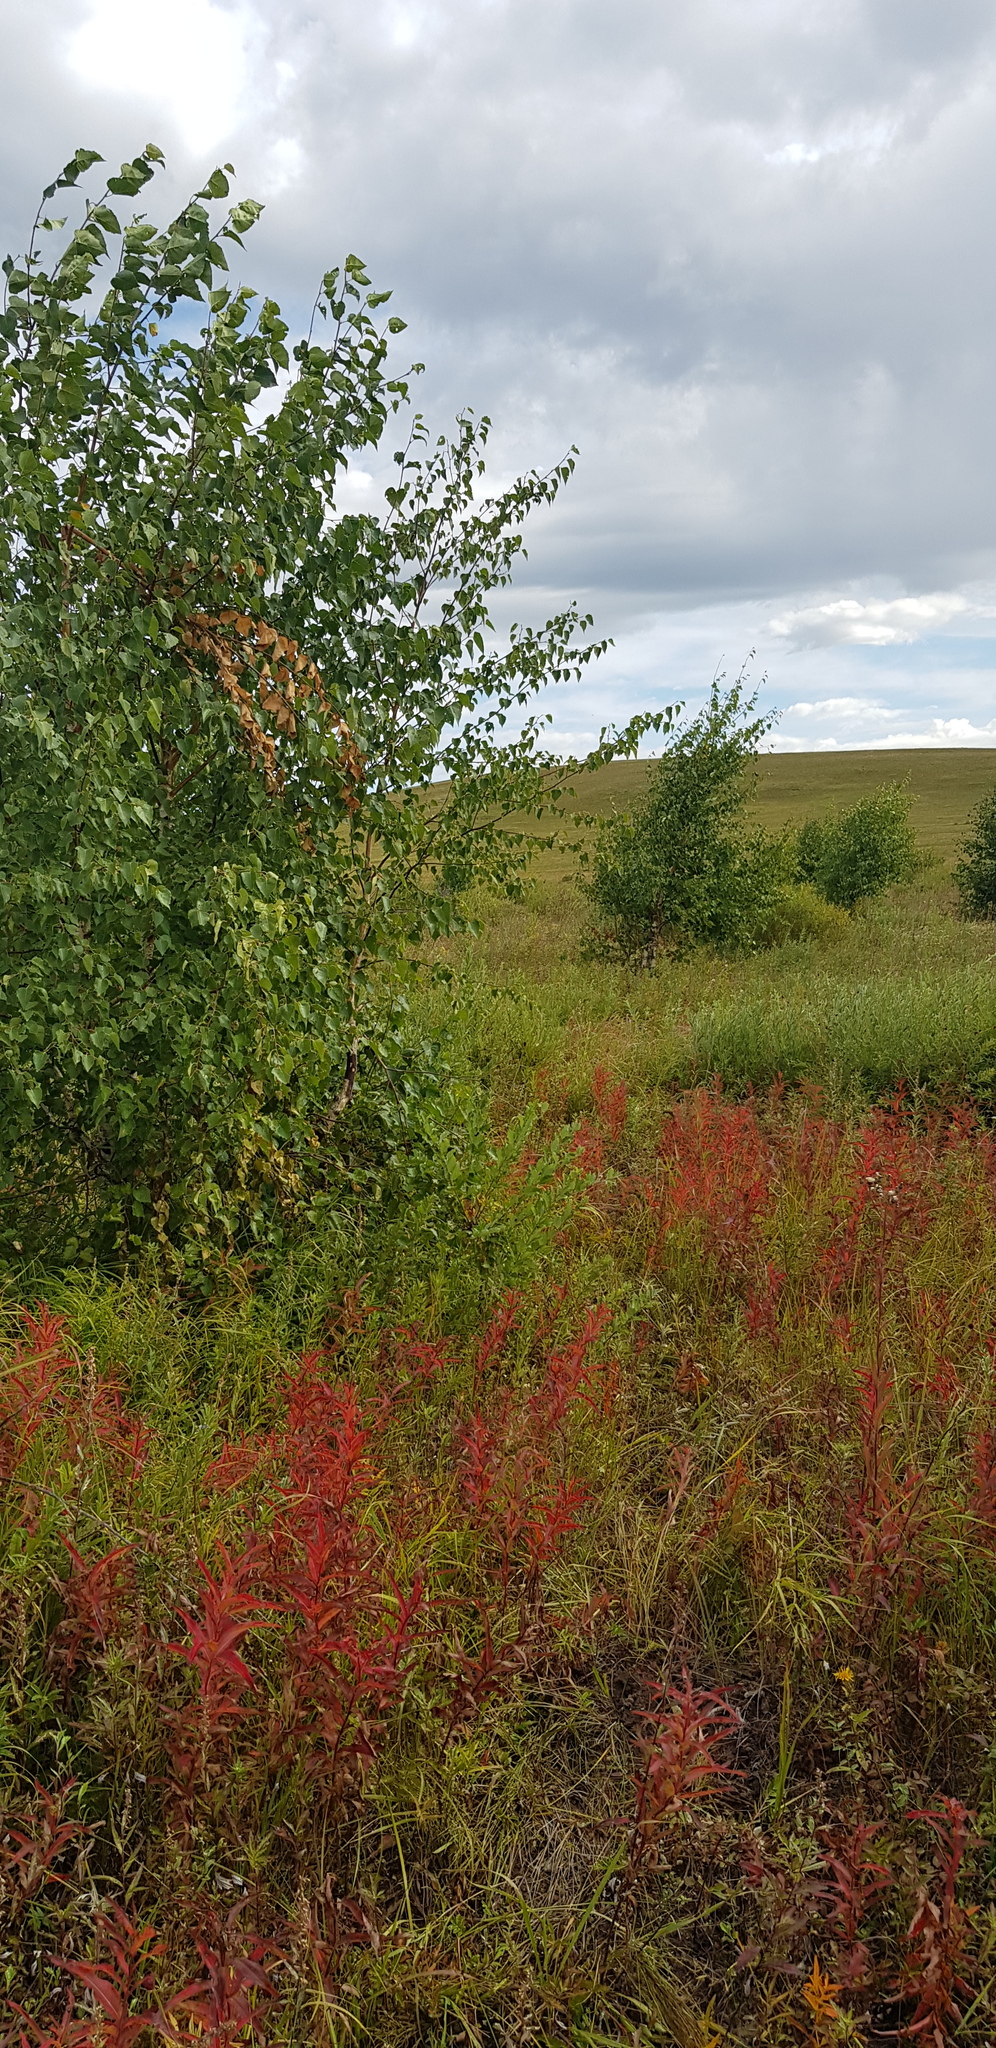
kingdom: Plantae
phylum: Tracheophyta
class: Magnoliopsida
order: Myrtales
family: Onagraceae
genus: Chamaenerion
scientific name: Chamaenerion angustifolium
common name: Fireweed
